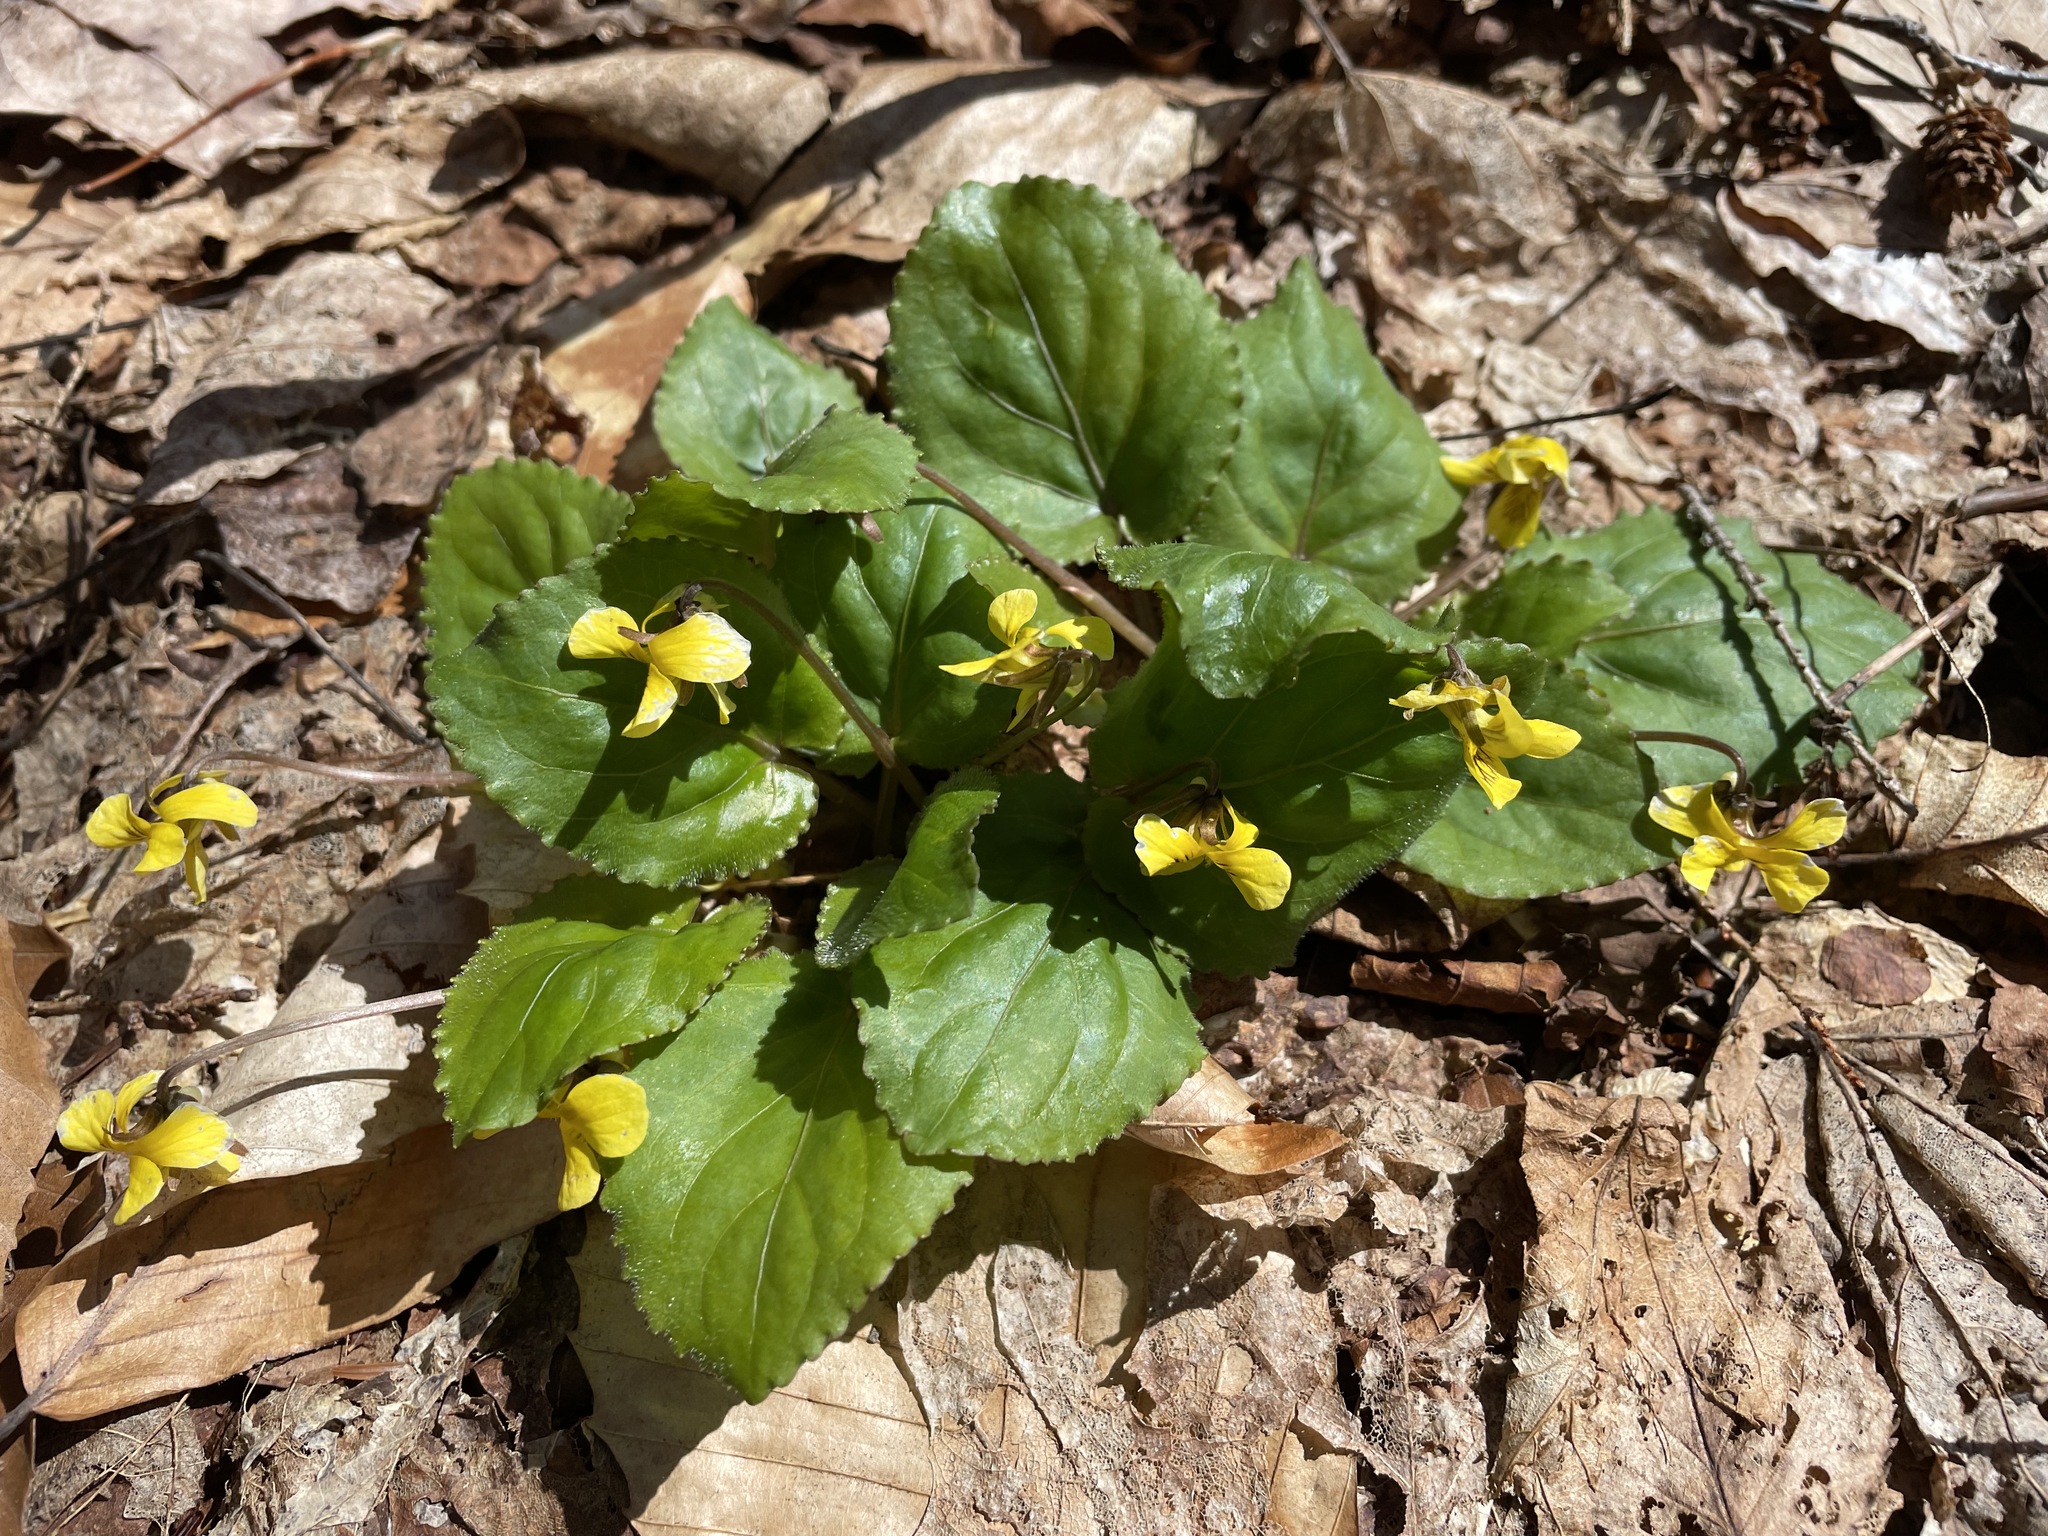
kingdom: Plantae
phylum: Tracheophyta
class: Magnoliopsida
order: Malpighiales
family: Violaceae
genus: Viola
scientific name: Viola rotundifolia
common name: Early yellow violet
